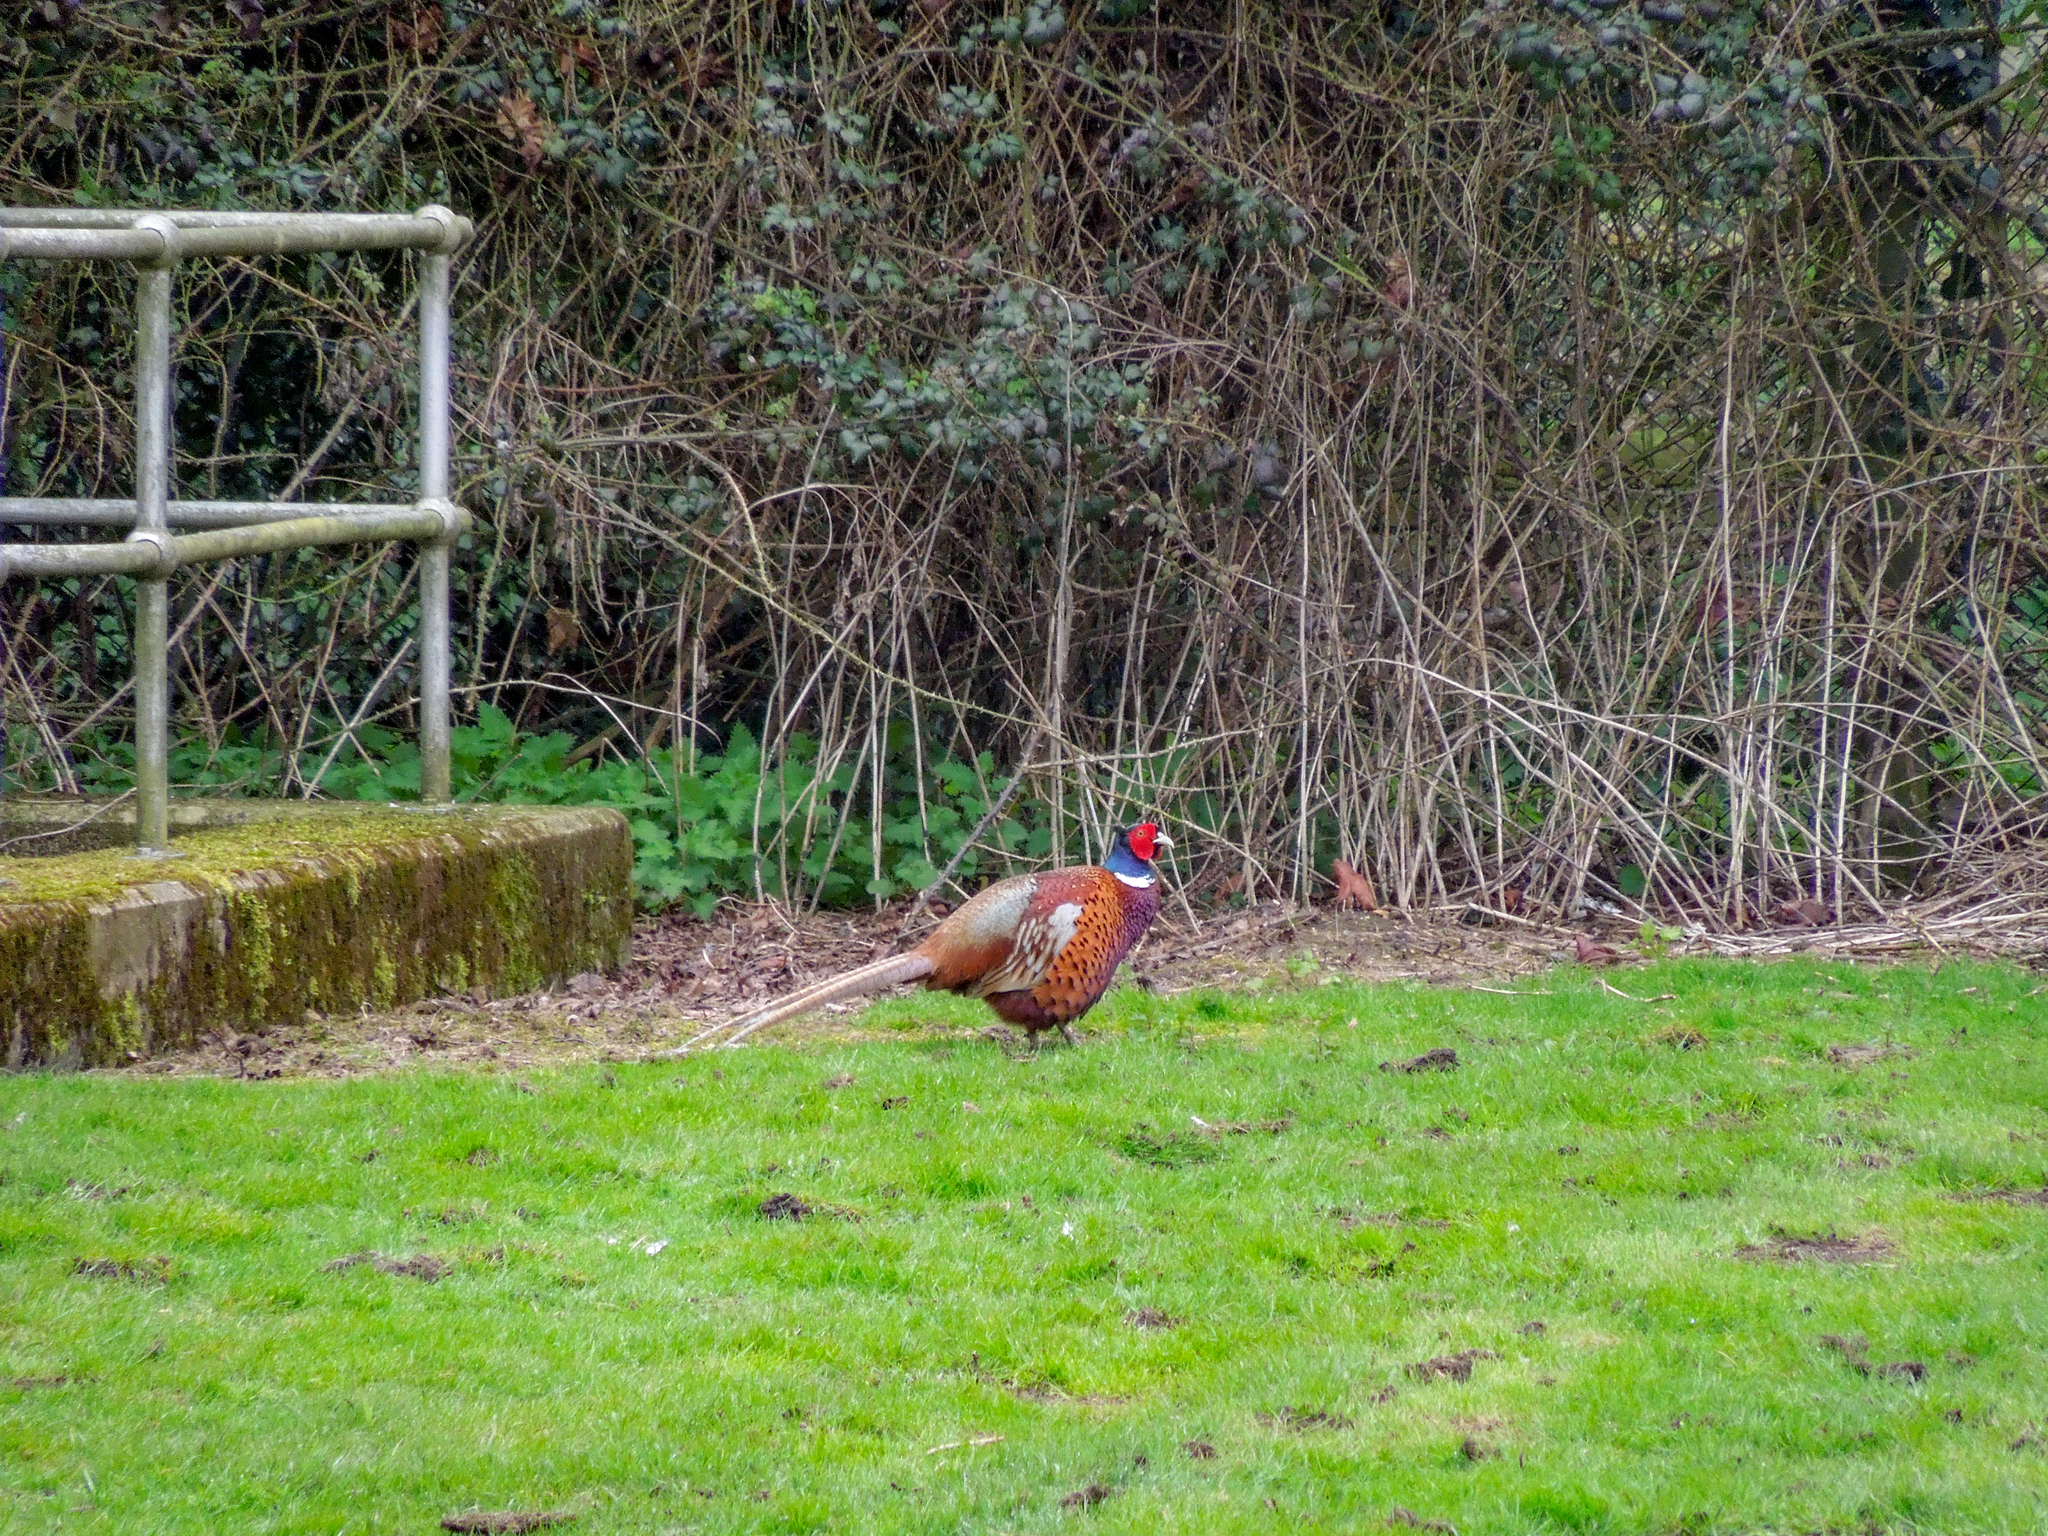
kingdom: Animalia
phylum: Chordata
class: Aves
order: Galliformes
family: Phasianidae
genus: Phasianus
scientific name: Phasianus colchicus
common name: Common pheasant
